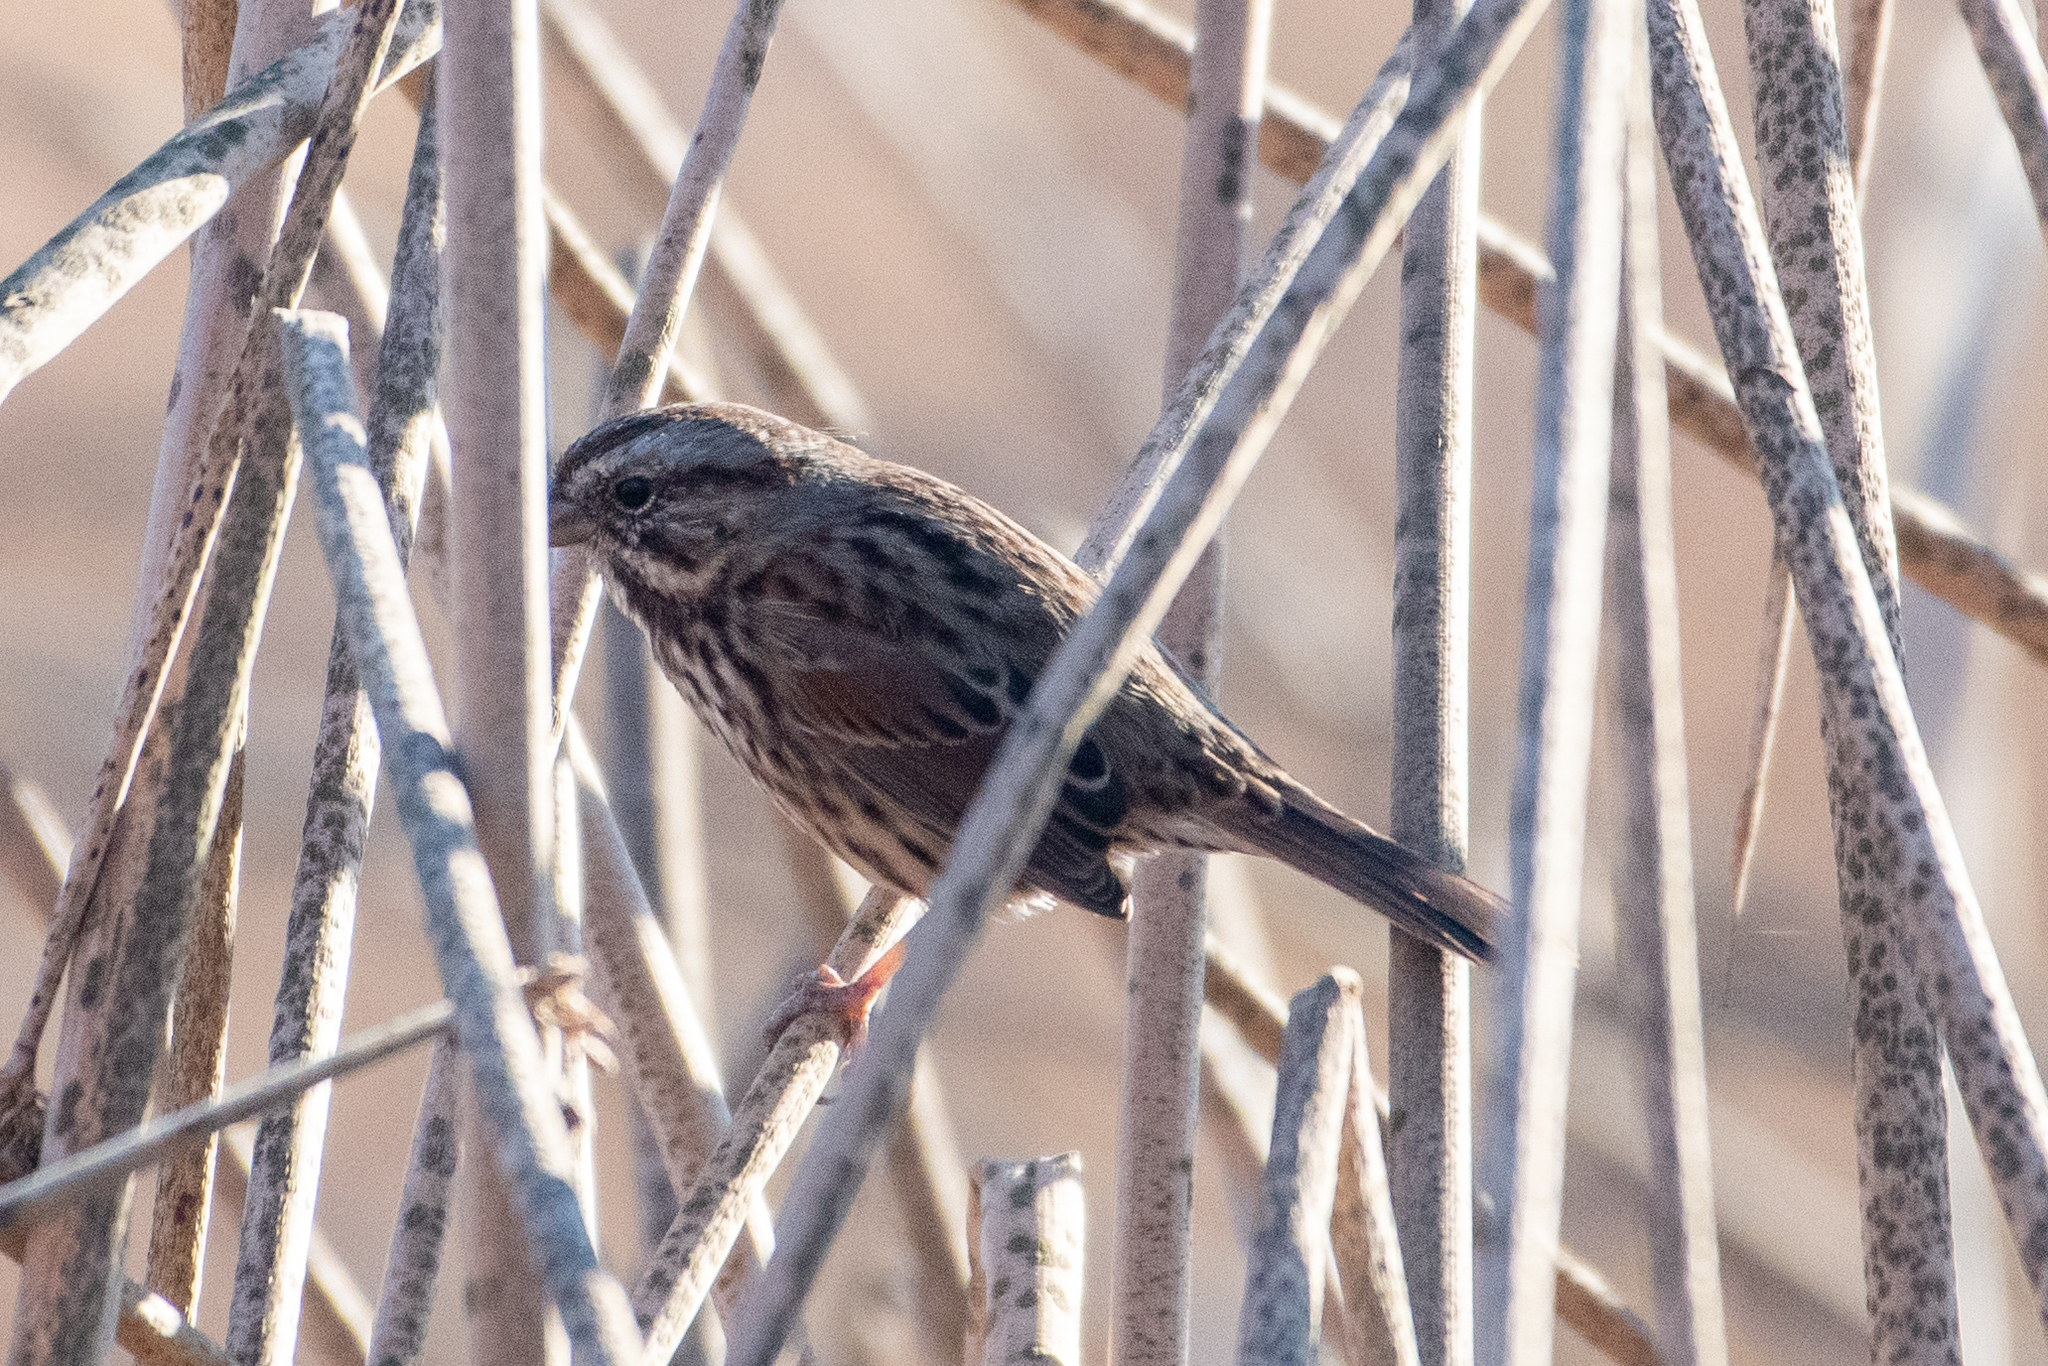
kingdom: Animalia
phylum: Chordata
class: Aves
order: Passeriformes
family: Passerellidae
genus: Melospiza
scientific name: Melospiza melodia
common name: Song sparrow
